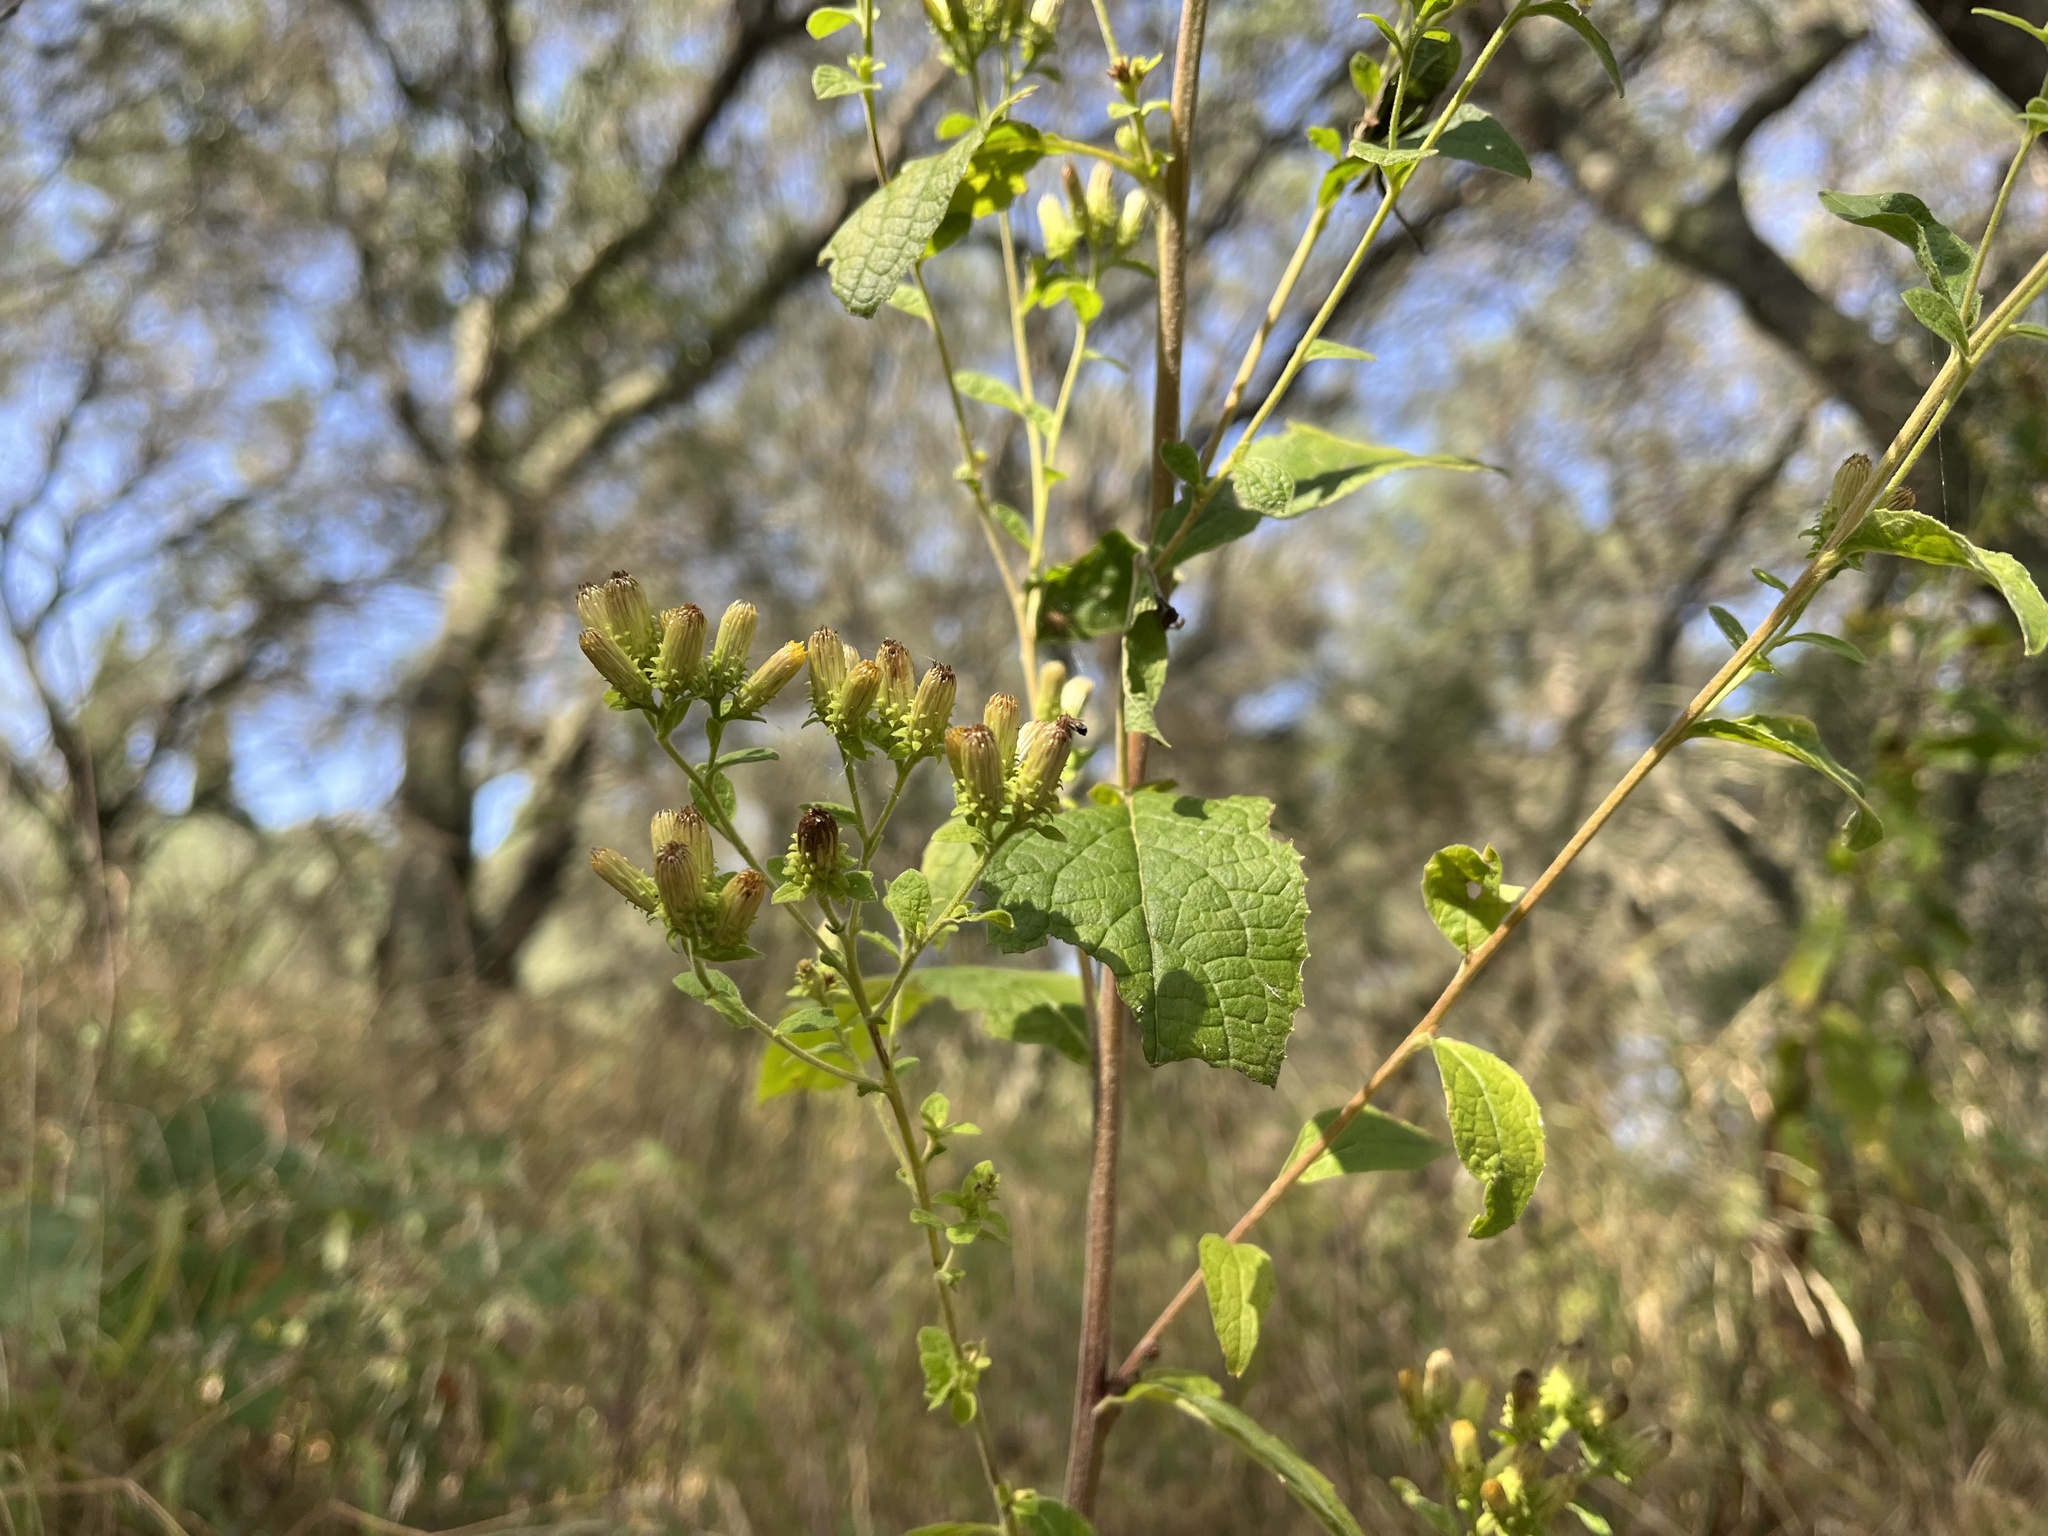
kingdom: Plantae
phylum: Tracheophyta
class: Magnoliopsida
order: Asterales
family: Asteraceae
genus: Pentanema
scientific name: Pentanema squarrosum
